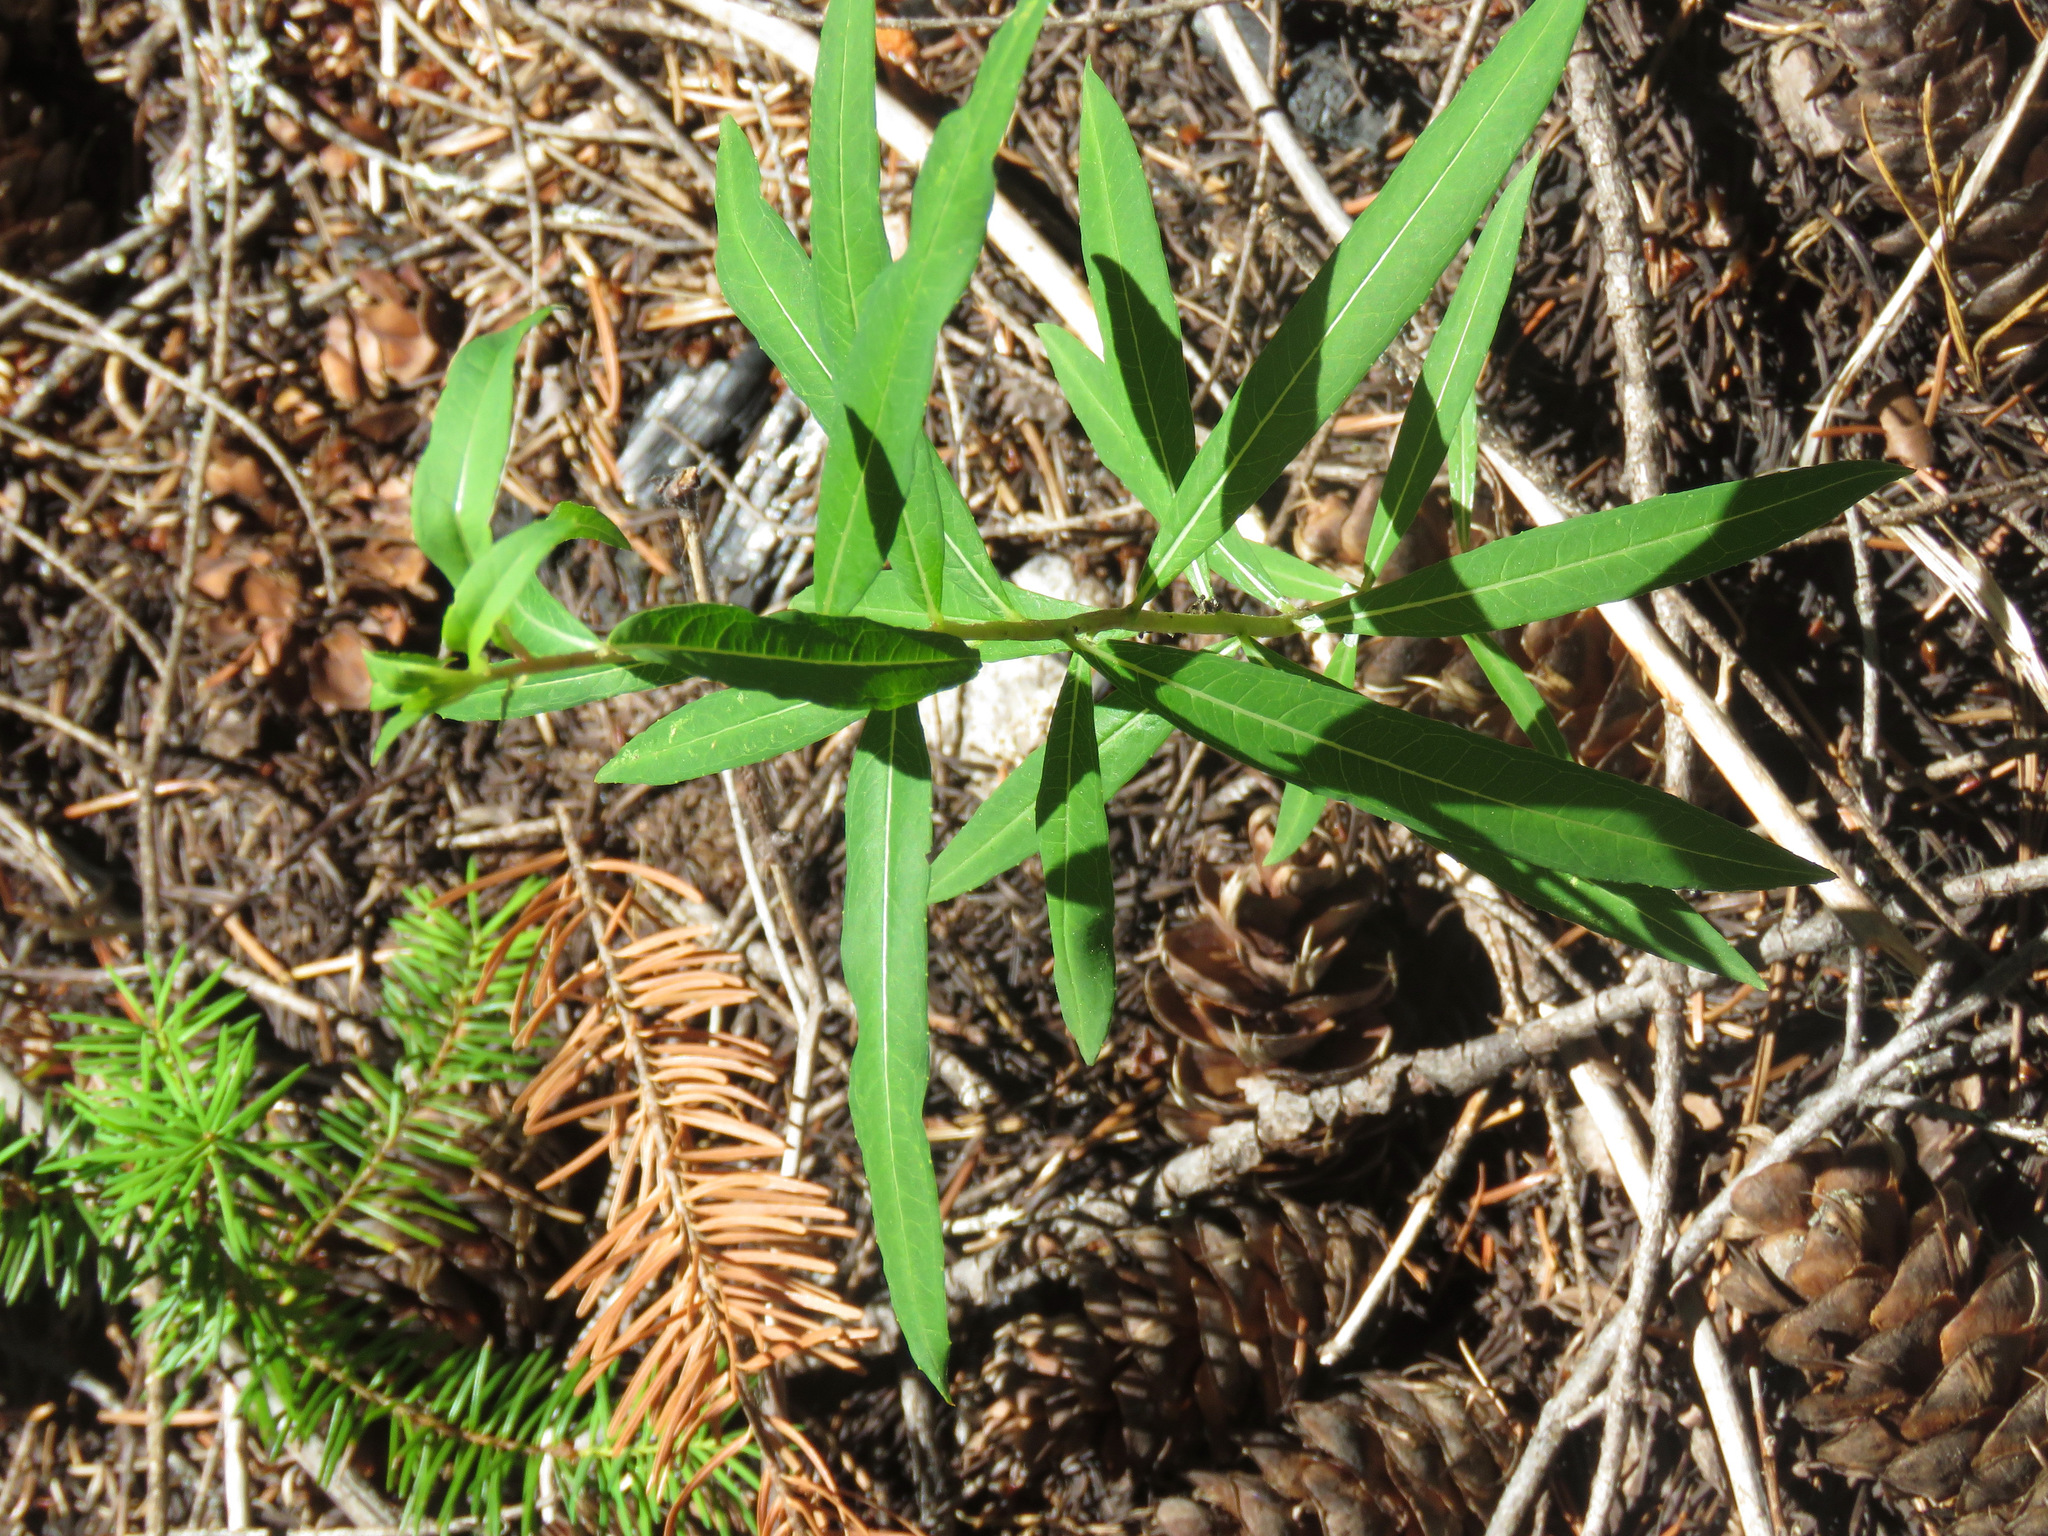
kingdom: Plantae
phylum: Tracheophyta
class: Magnoliopsida
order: Myrtales
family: Onagraceae
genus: Chamaenerion
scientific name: Chamaenerion angustifolium
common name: Fireweed
